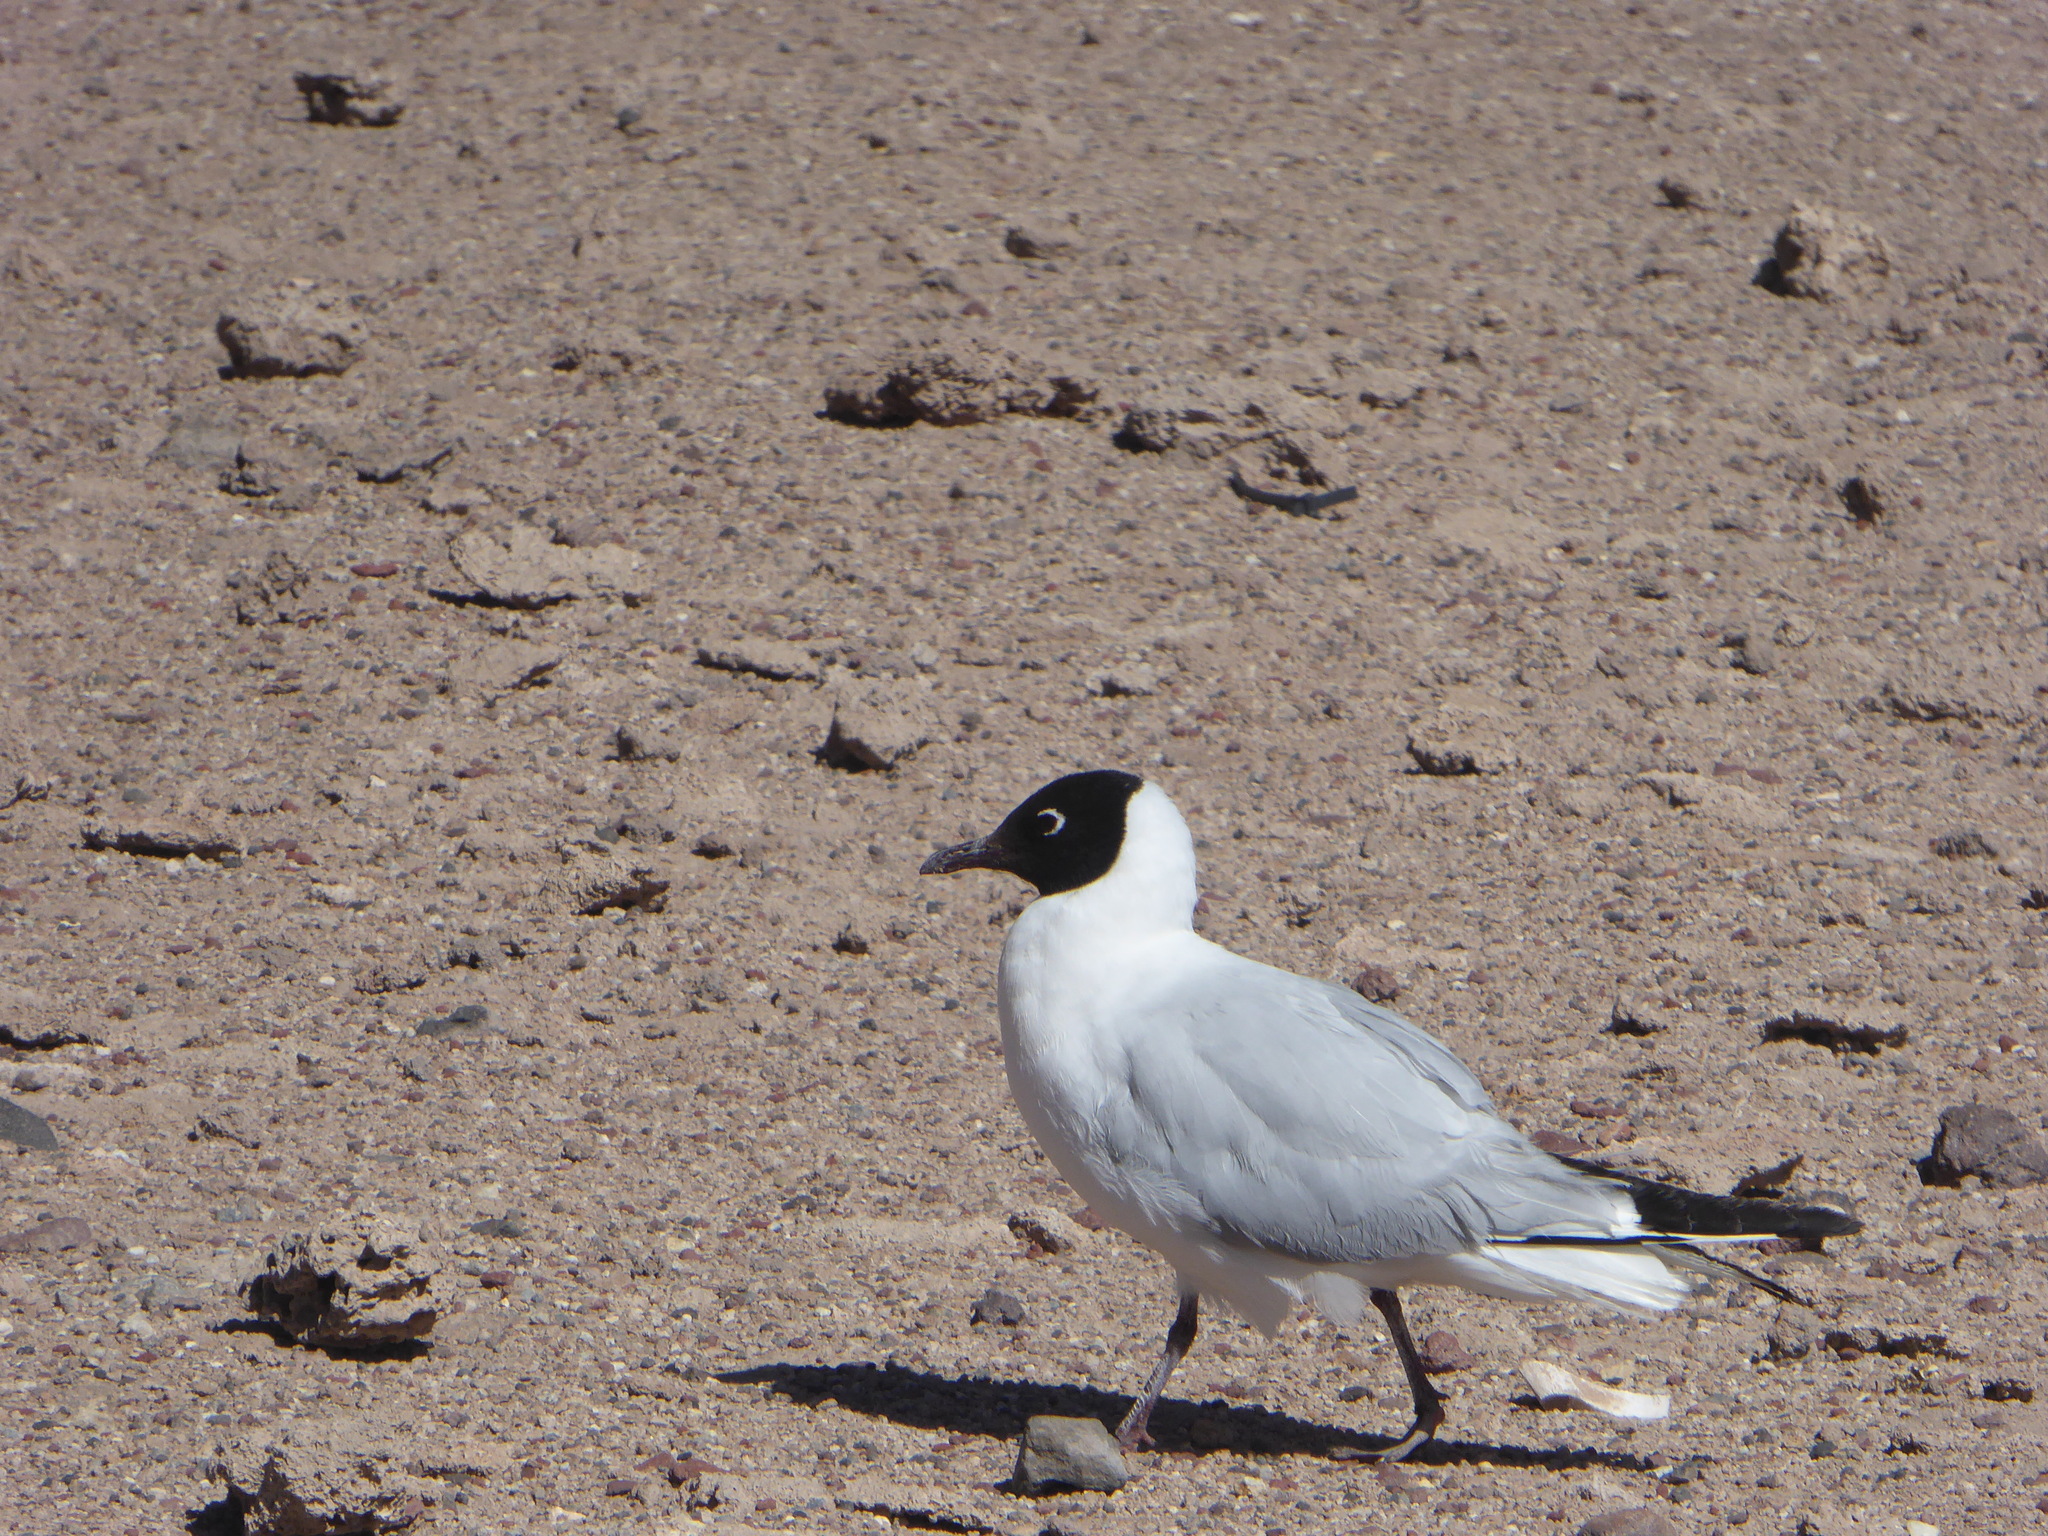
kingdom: Animalia
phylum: Chordata
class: Aves
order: Charadriiformes
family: Laridae
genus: Chroicocephalus
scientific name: Chroicocephalus serranus
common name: Andean gull
